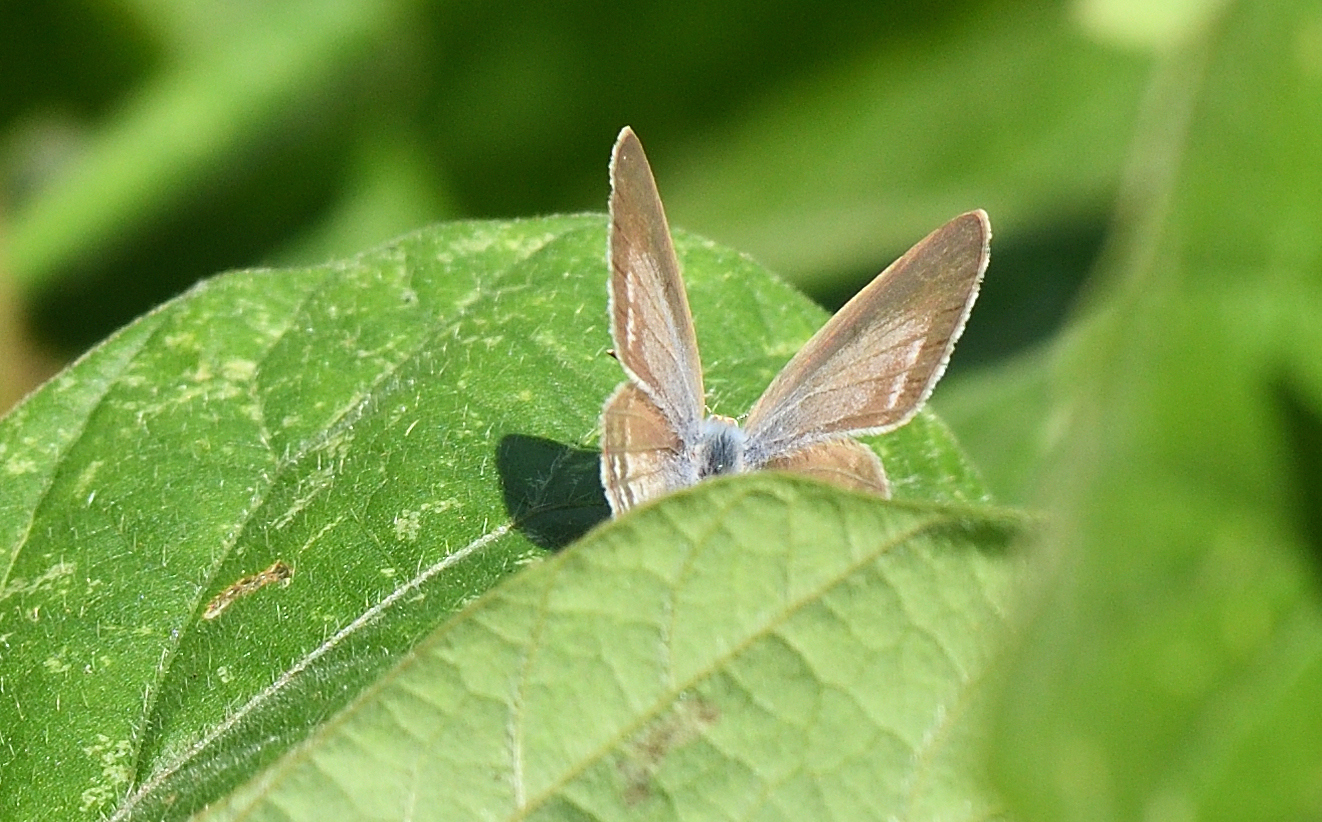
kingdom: Animalia
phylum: Arthropoda
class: Insecta
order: Lepidoptera
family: Lycaenidae
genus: Lampides
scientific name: Lampides boeticus
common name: Long-tailed blue
